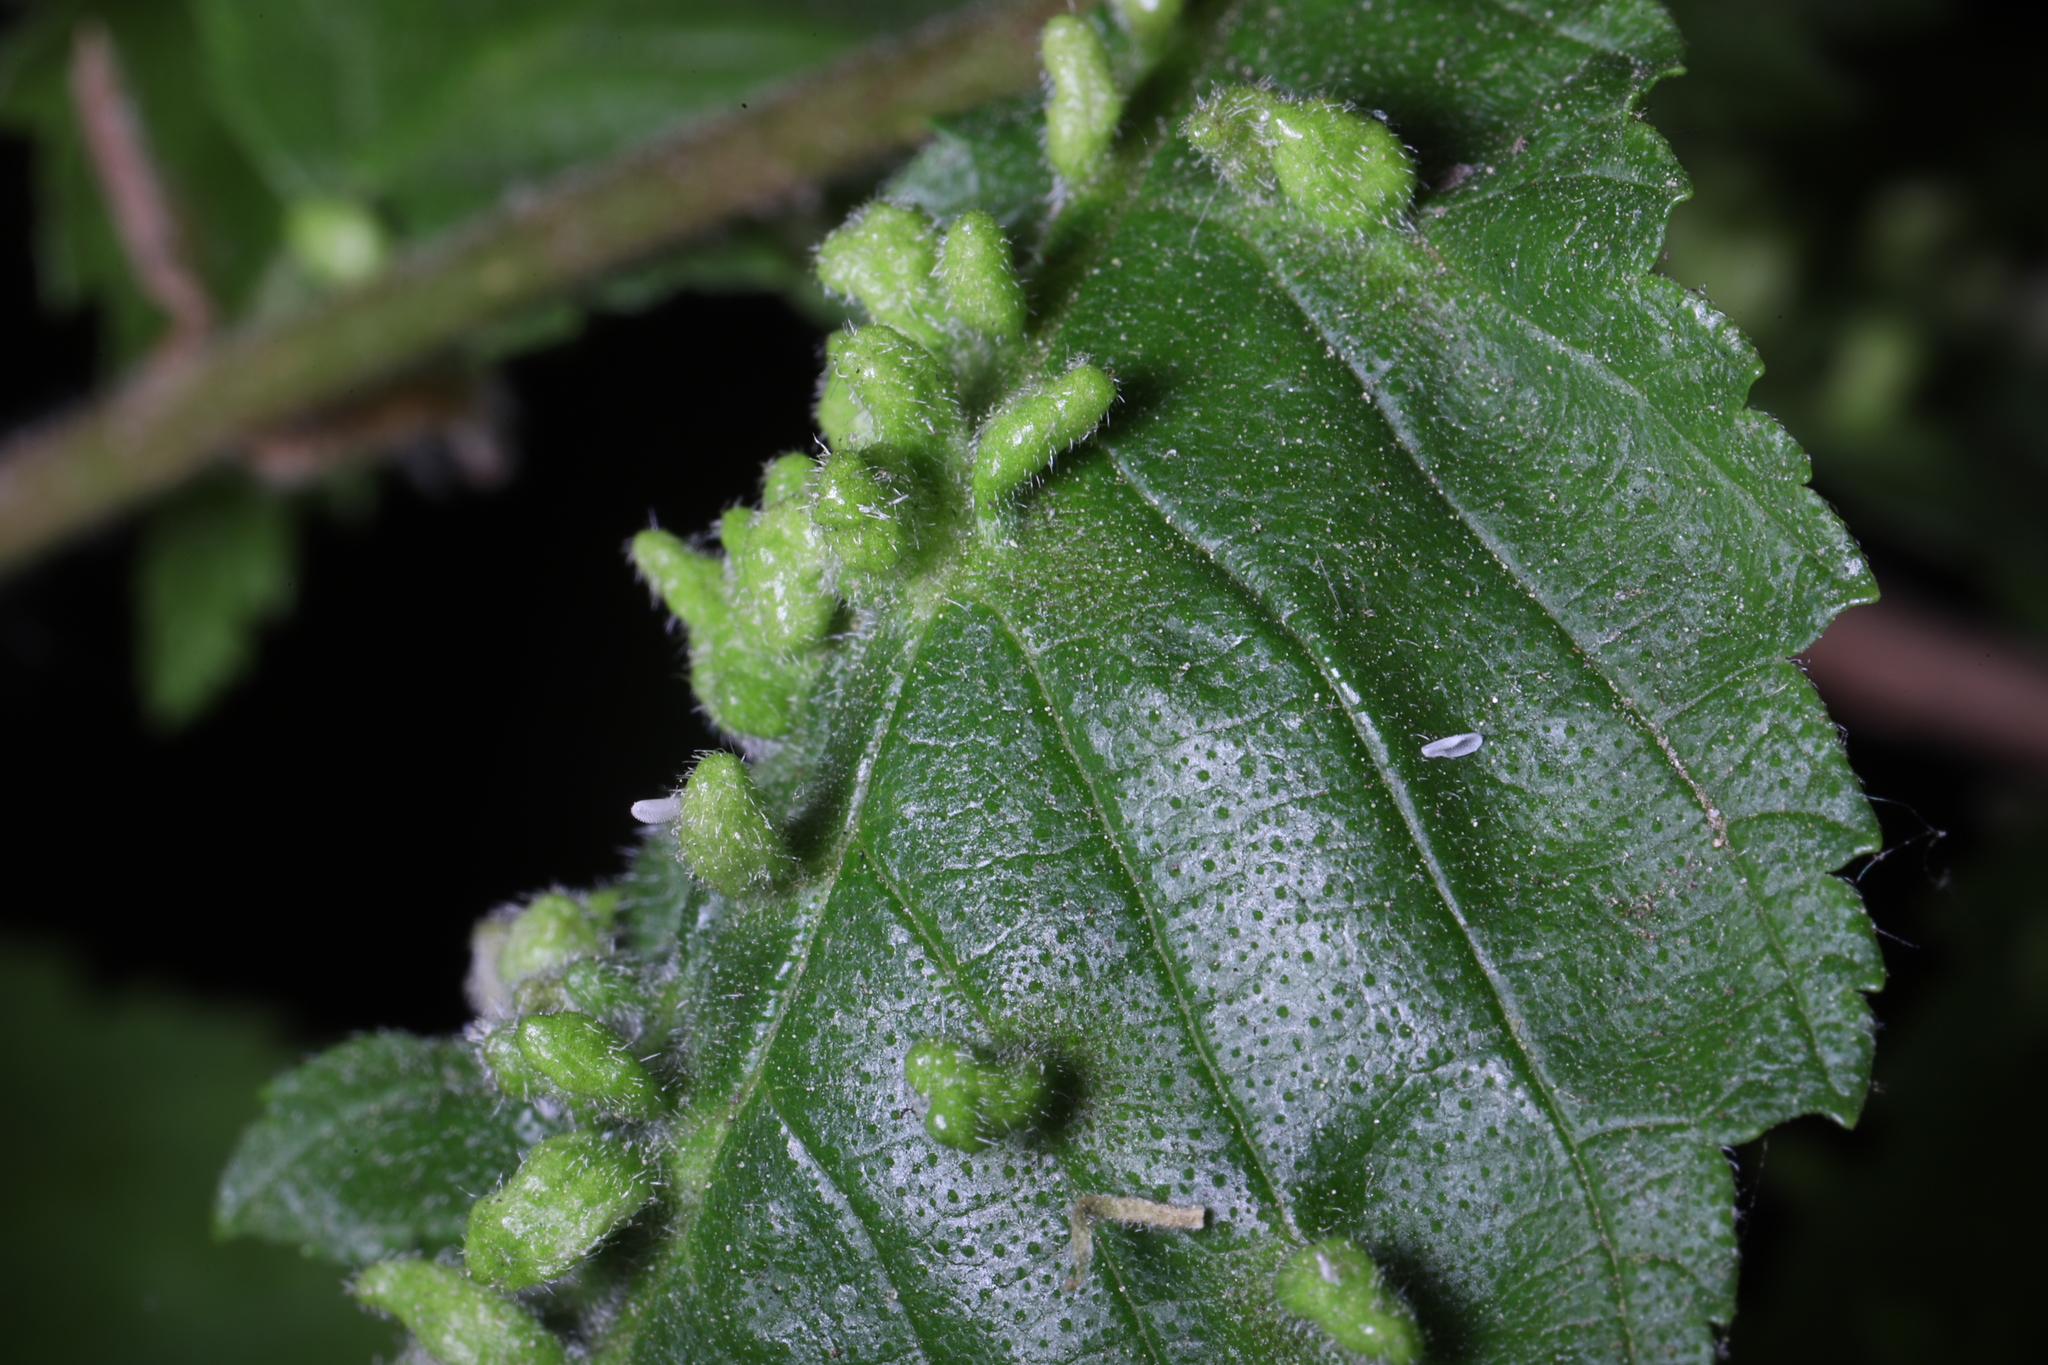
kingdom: Animalia
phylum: Arthropoda
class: Arachnida
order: Trombidiformes
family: Eriophyidae
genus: Aceria
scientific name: Aceria
